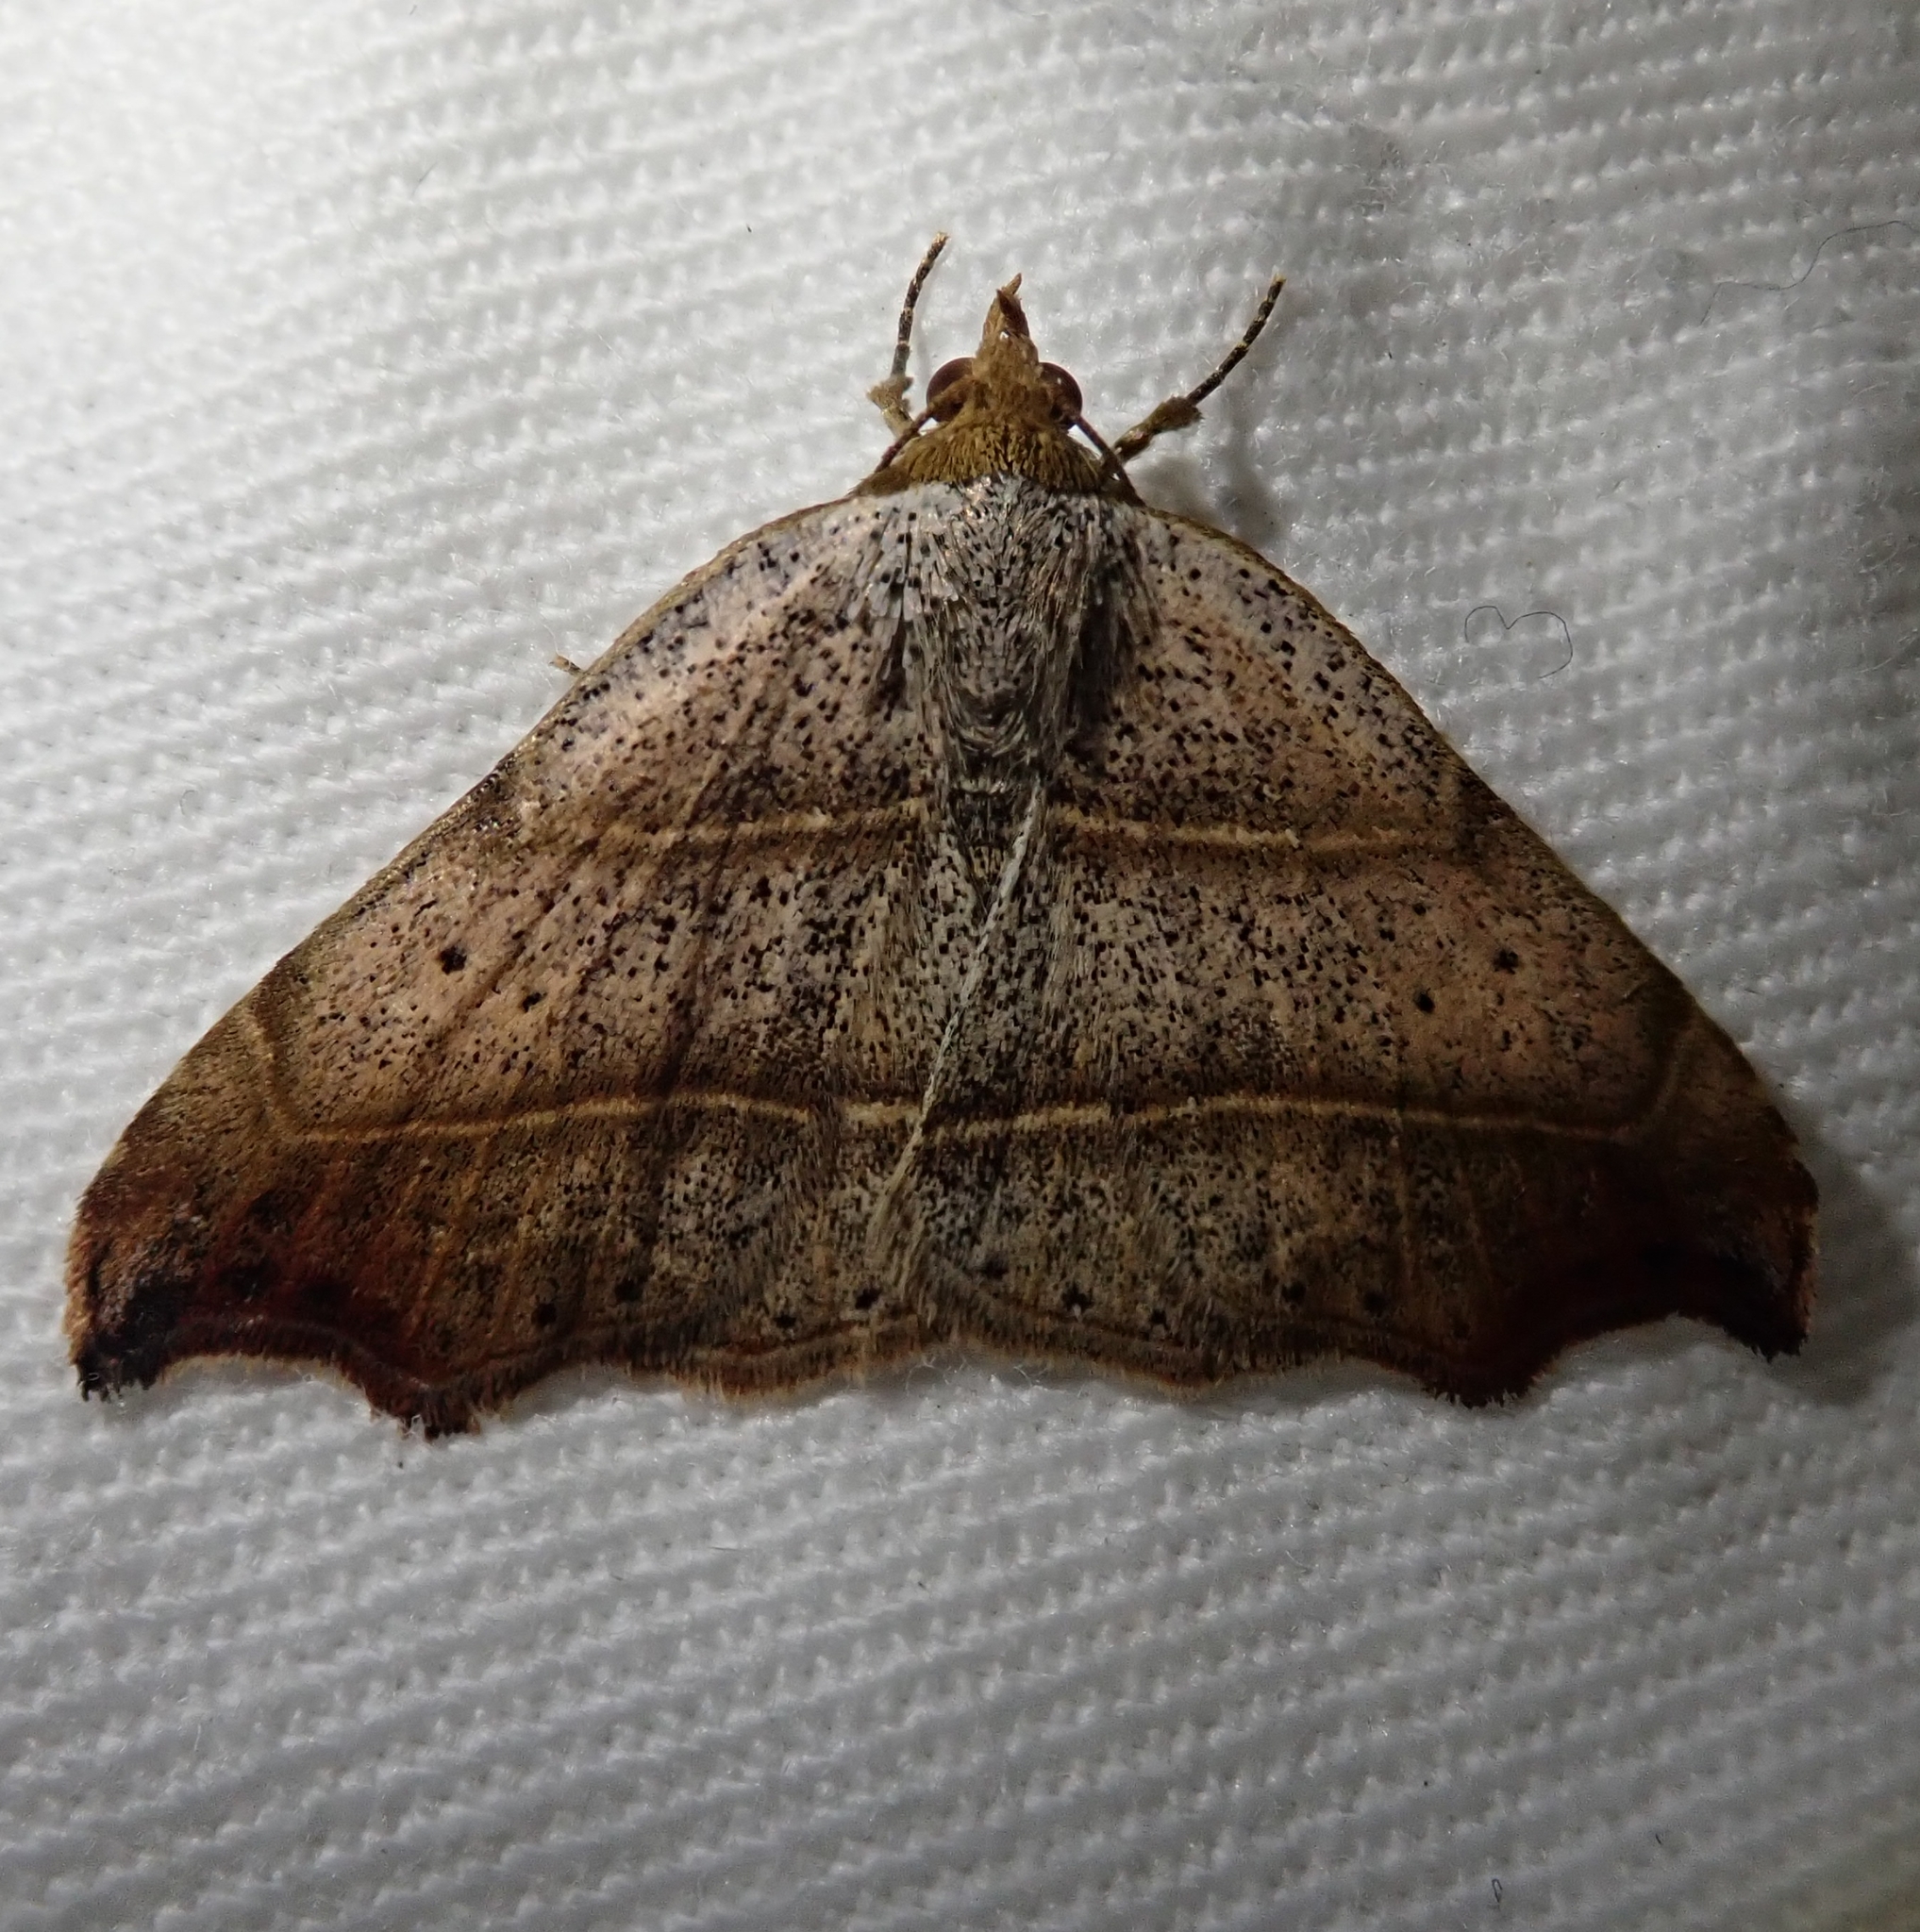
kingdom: Animalia
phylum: Arthropoda
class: Insecta
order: Lepidoptera
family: Erebidae
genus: Laspeyria
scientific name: Laspeyria flexula
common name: Beautiful hook-tip
